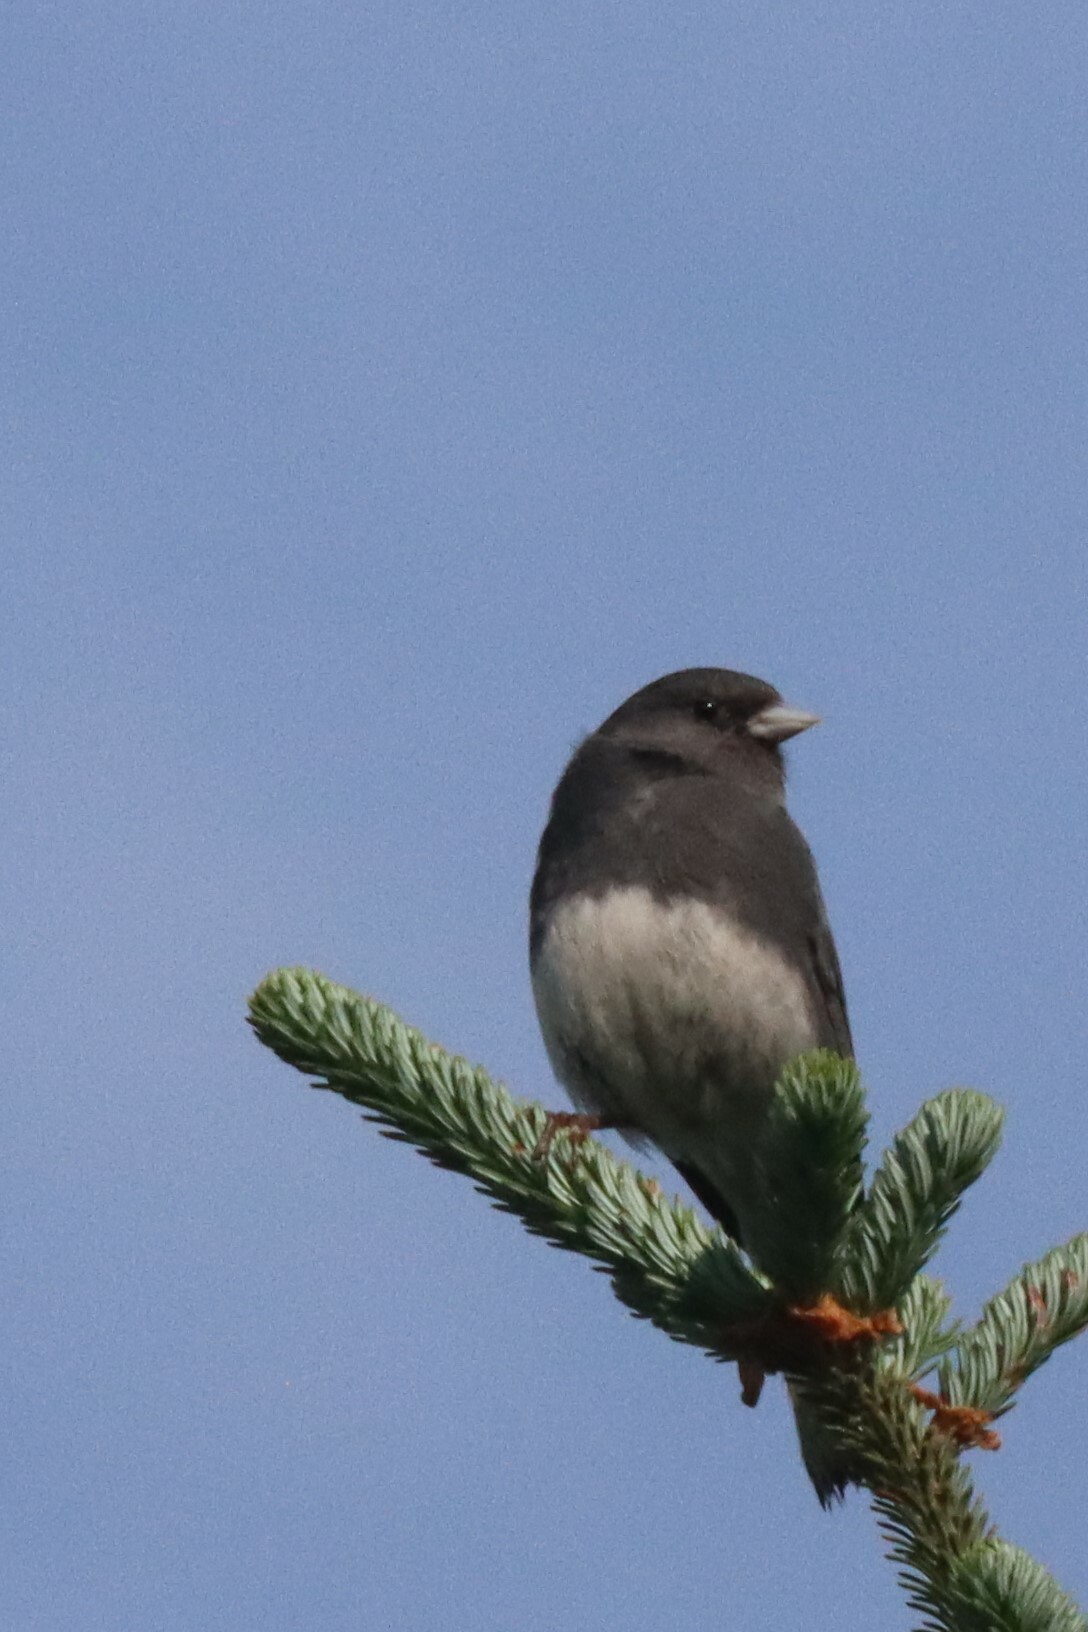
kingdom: Animalia
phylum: Chordata
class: Aves
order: Passeriformes
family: Passerellidae
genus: Junco
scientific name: Junco hyemalis
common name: Dark-eyed junco
